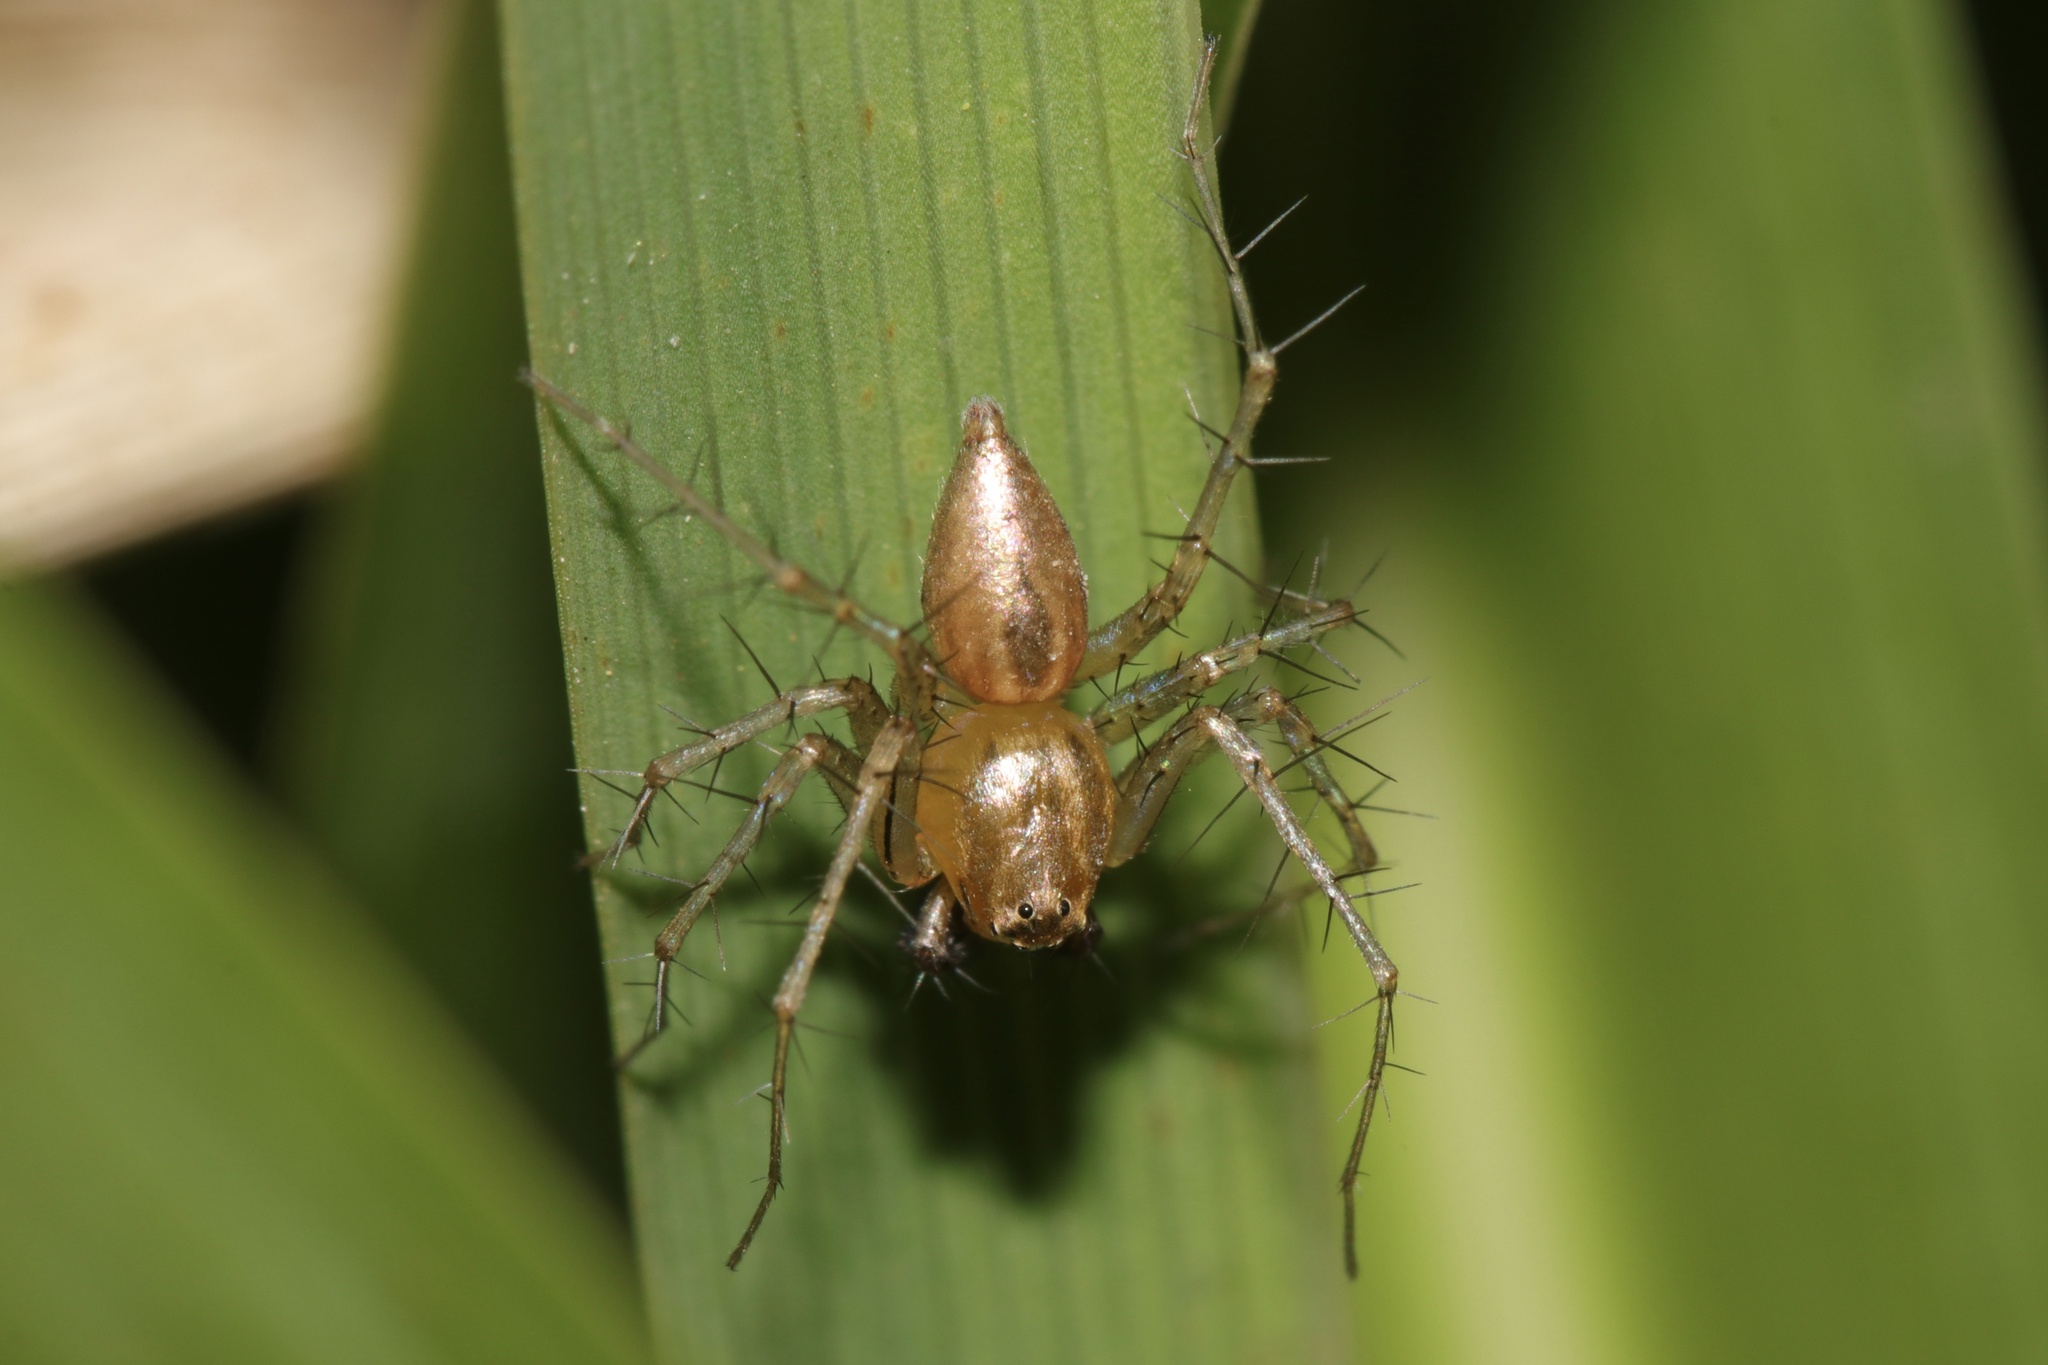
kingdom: Animalia
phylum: Arthropoda
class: Arachnida
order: Araneae
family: Oxyopidae
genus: Oxyopes
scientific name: Oxyopes salticus
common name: Lynx spiders
